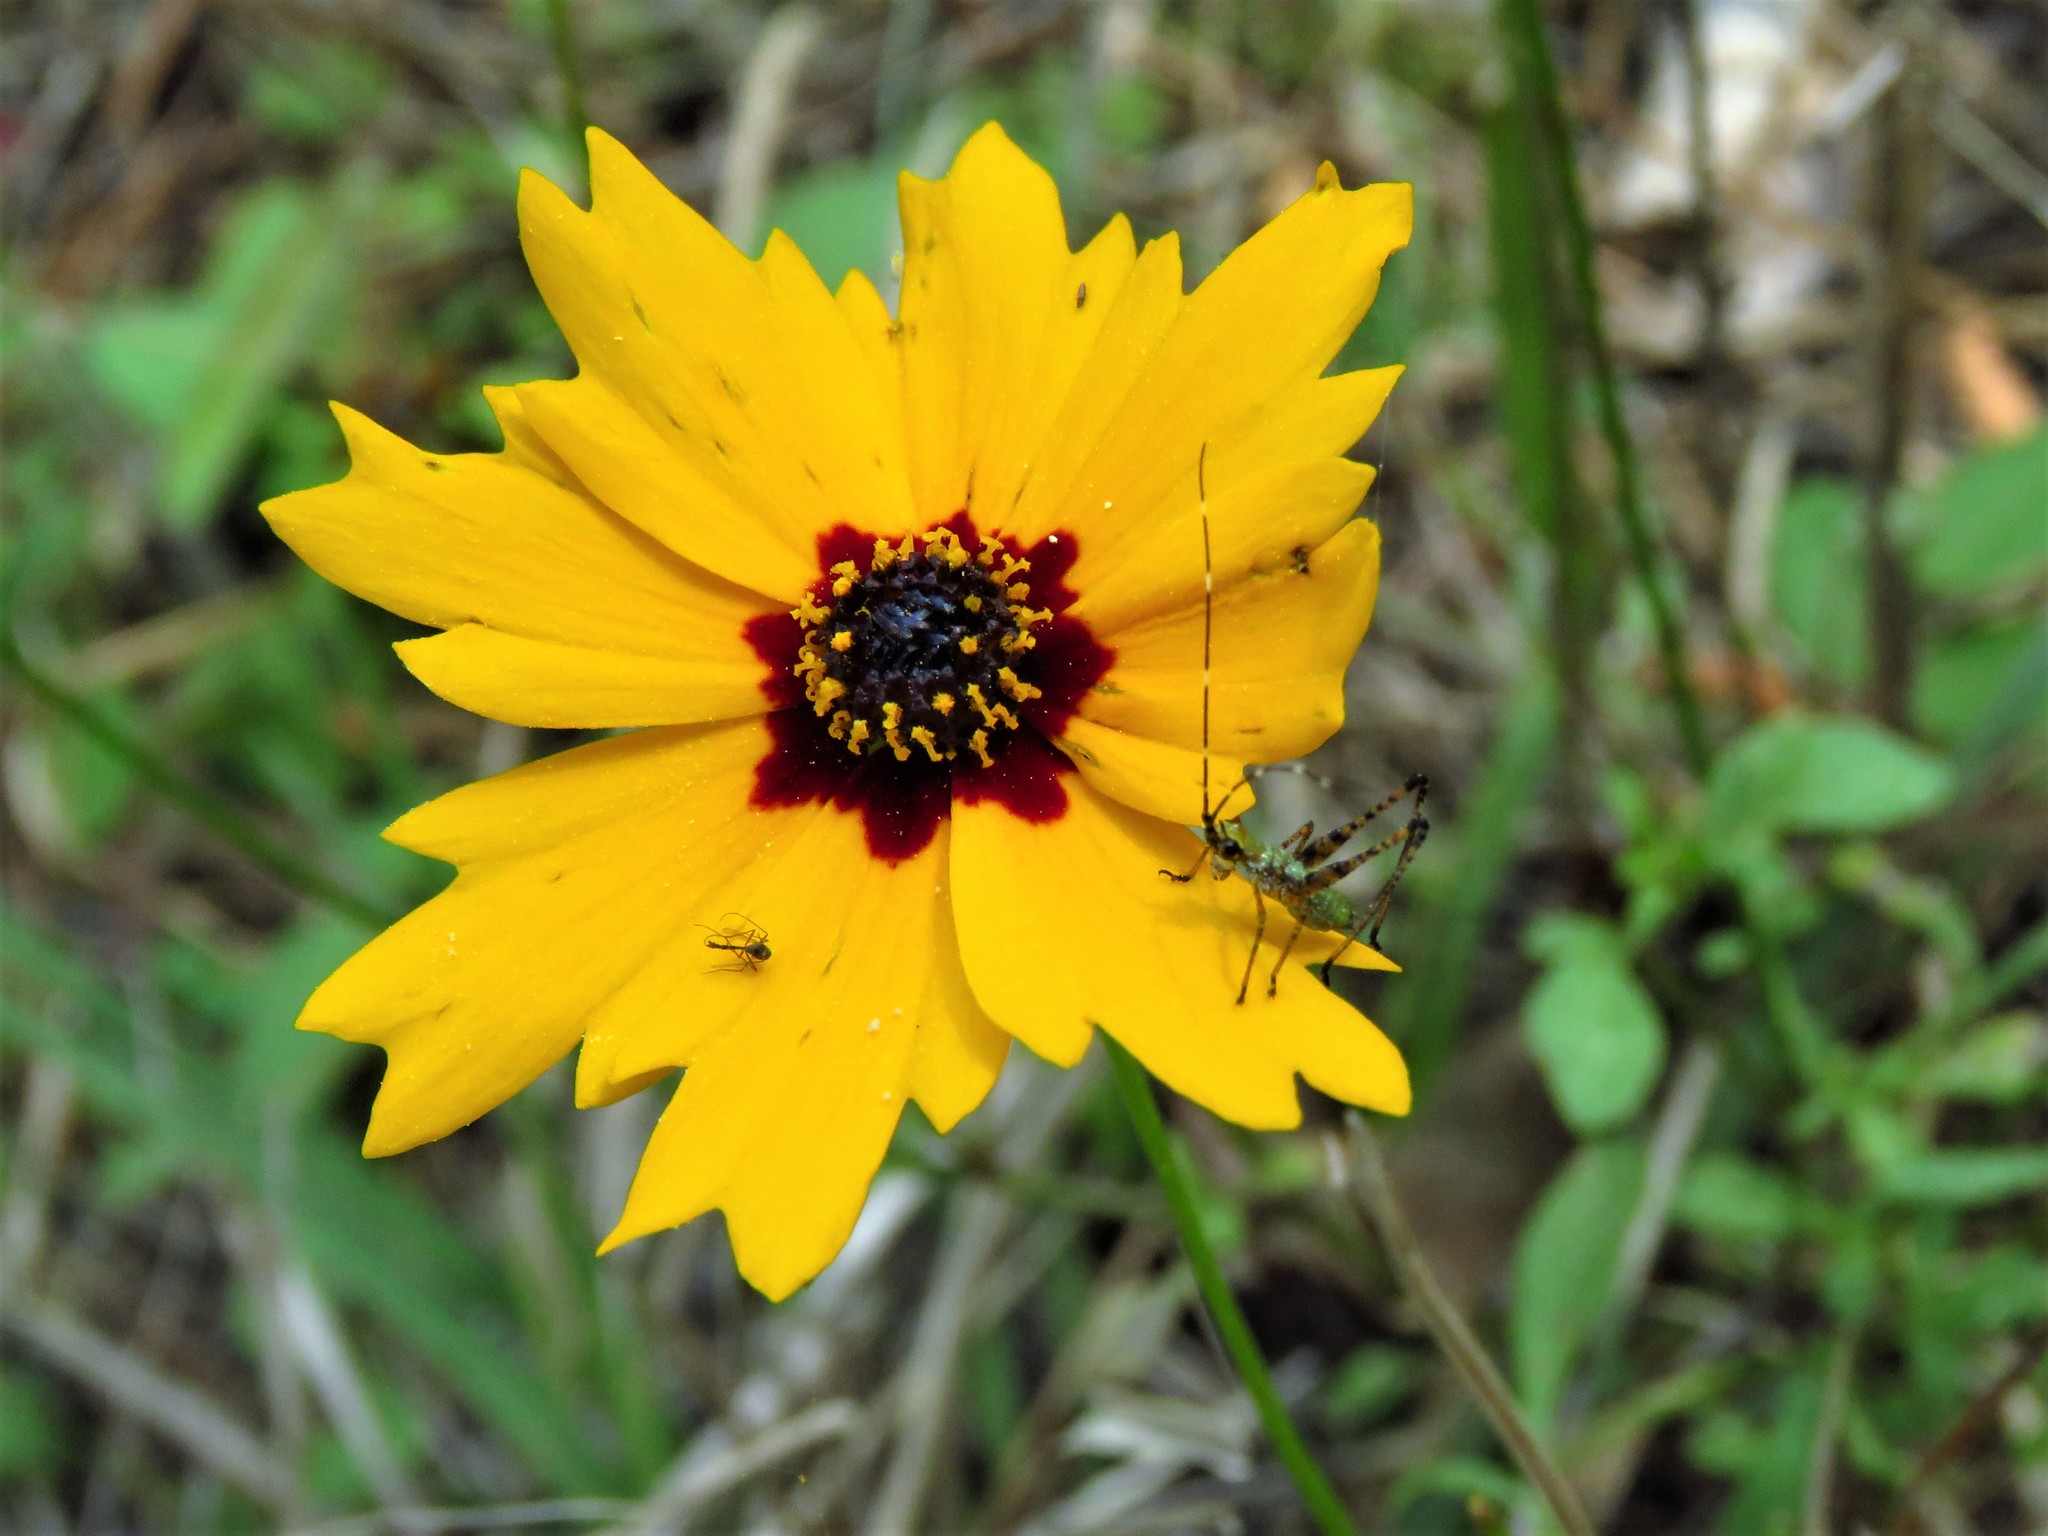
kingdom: Plantae
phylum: Tracheophyta
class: Magnoliopsida
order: Asterales
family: Asteraceae
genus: Coreopsis
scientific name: Coreopsis basalis
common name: Golden-mane coreopsis
